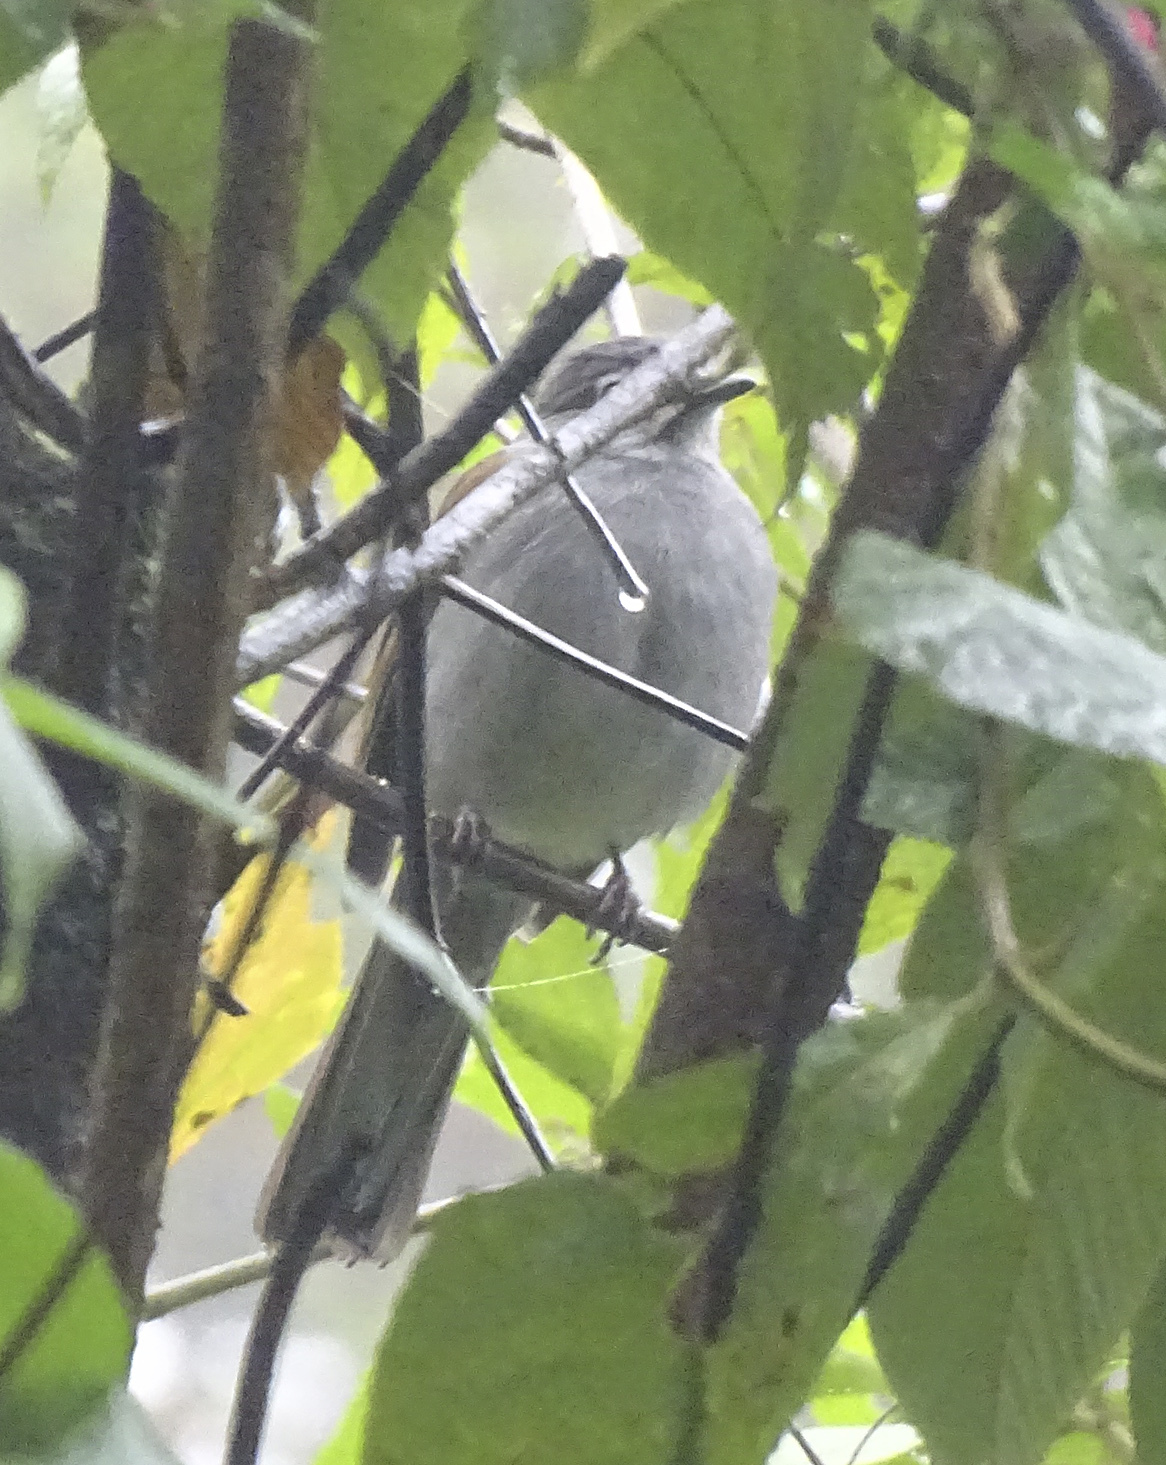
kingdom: Animalia
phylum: Chordata
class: Aves
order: Passeriformes
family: Turdidae
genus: Myadestes
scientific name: Myadestes occidentalis
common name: Brown-backed solitaire
